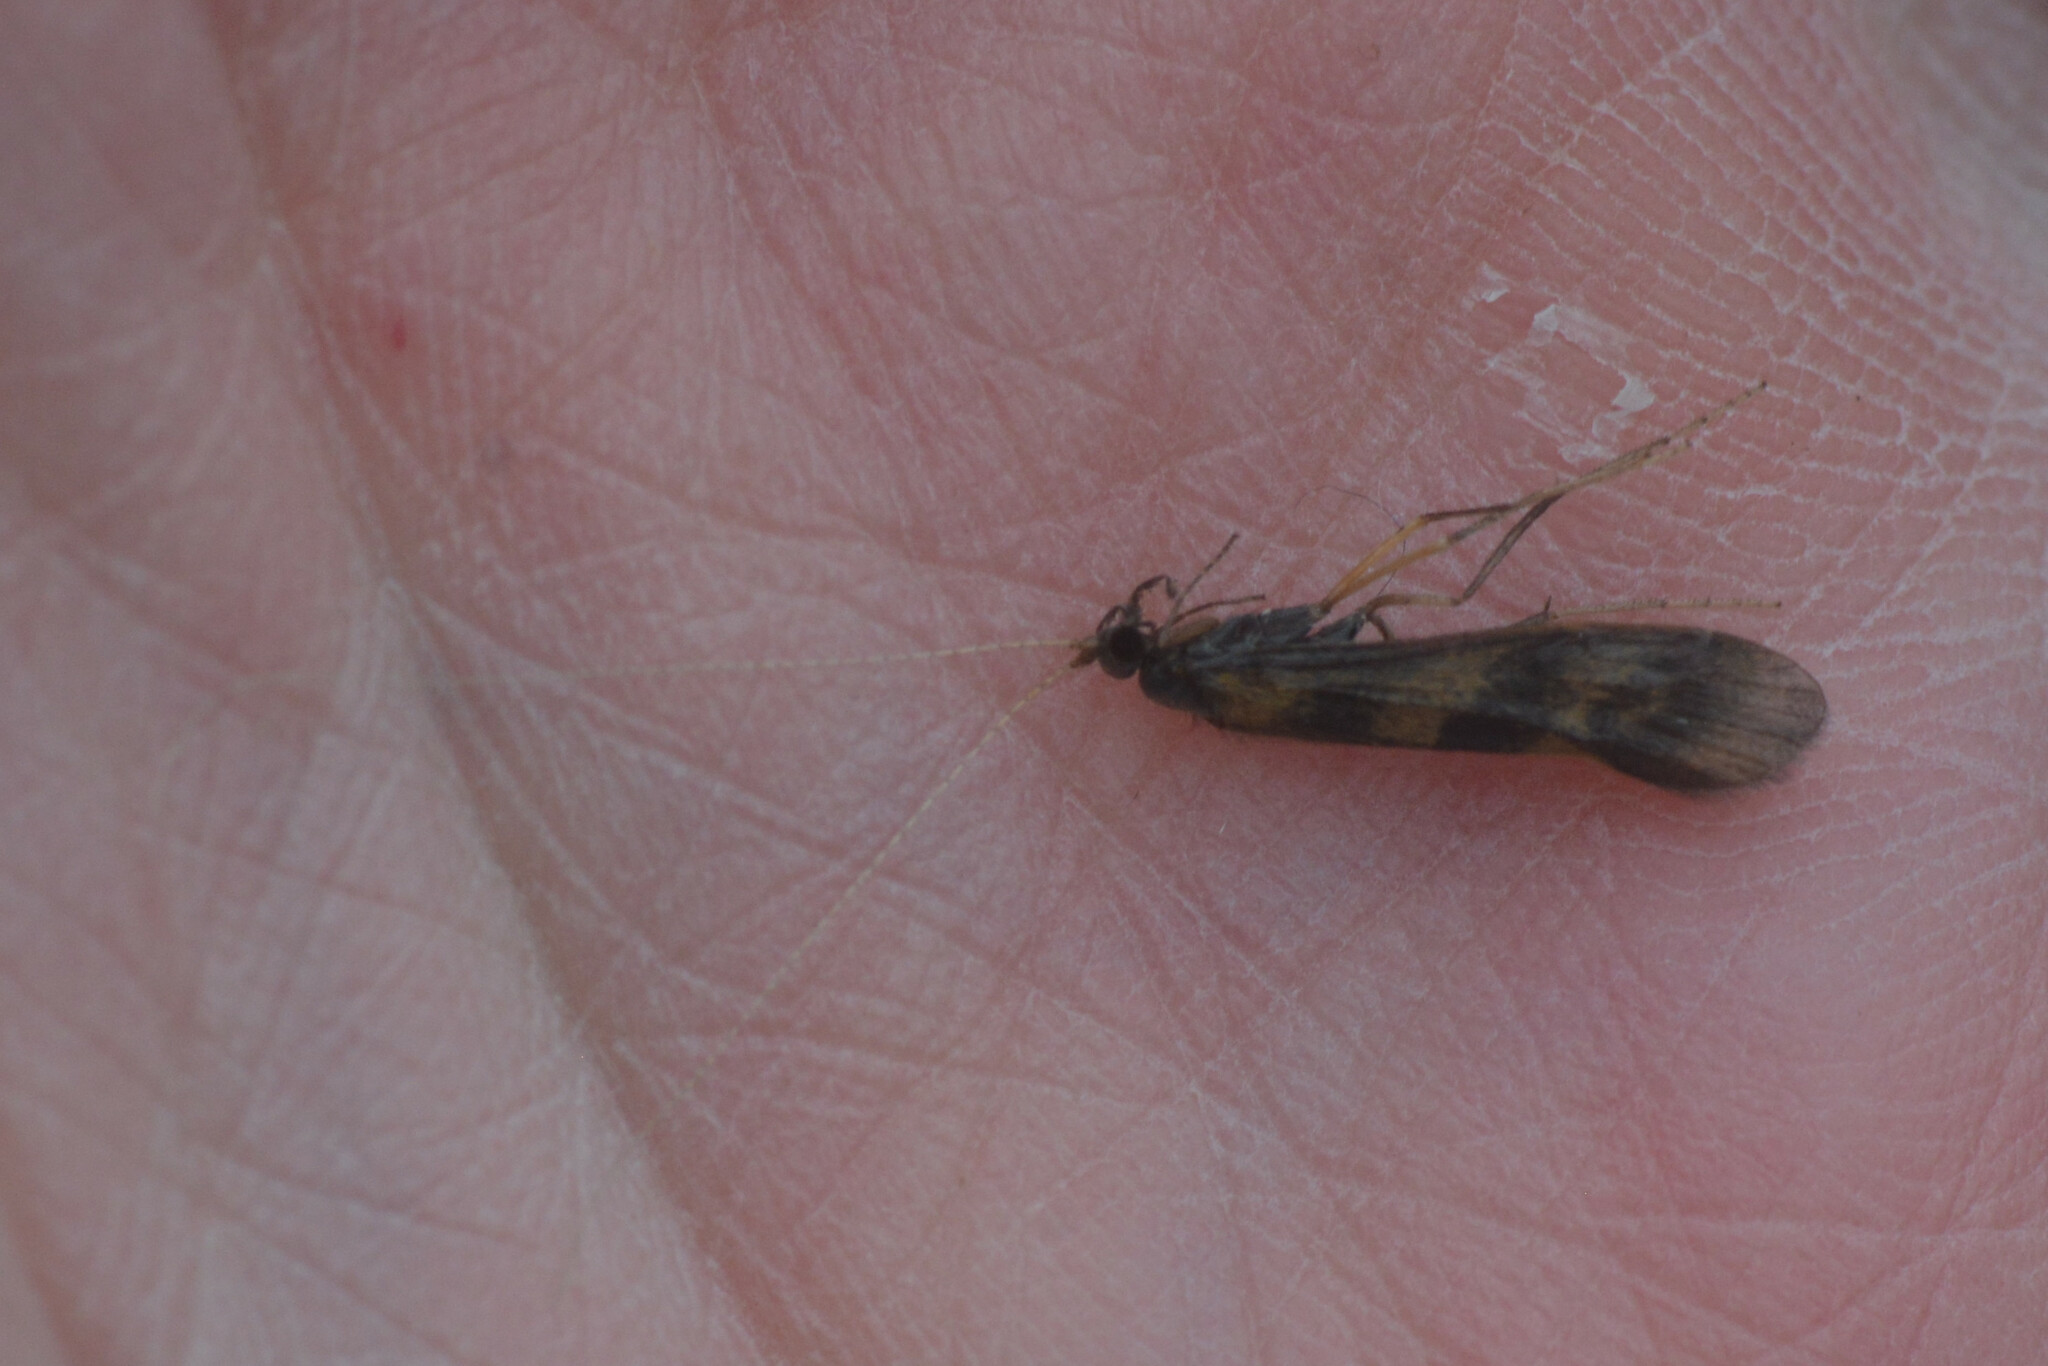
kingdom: Animalia
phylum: Arthropoda
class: Insecta
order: Trichoptera
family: Leptoceridae
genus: Mystacides
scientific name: Mystacides longicornis
